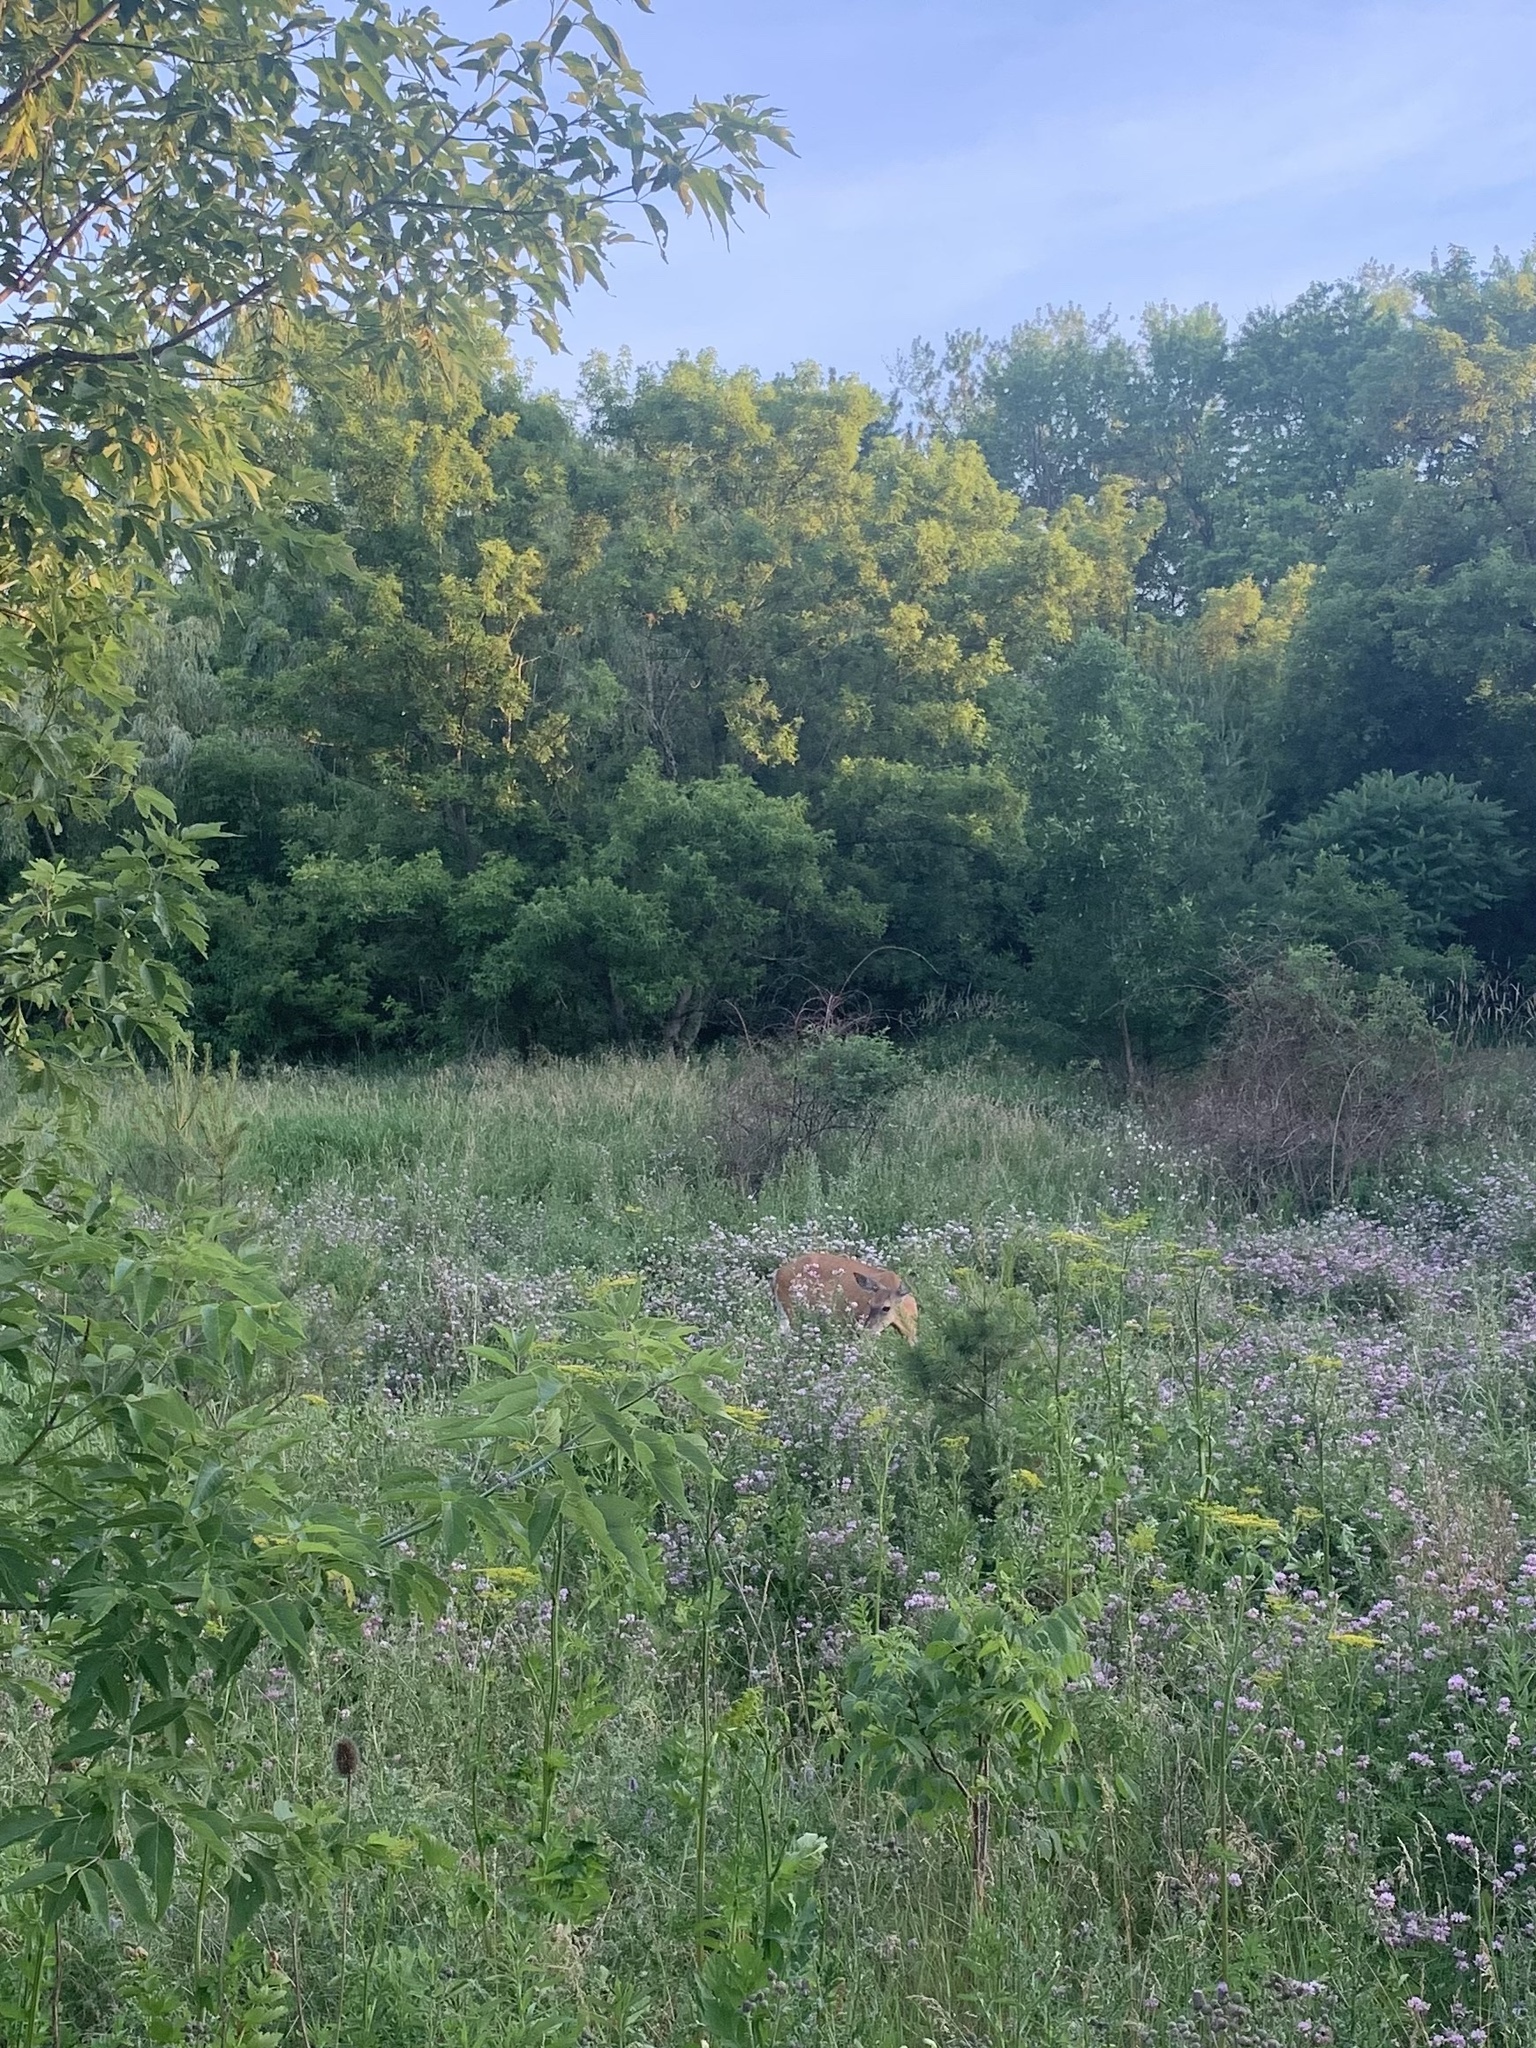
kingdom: Animalia
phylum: Chordata
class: Mammalia
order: Artiodactyla
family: Cervidae
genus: Odocoileus
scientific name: Odocoileus virginianus
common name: White-tailed deer
